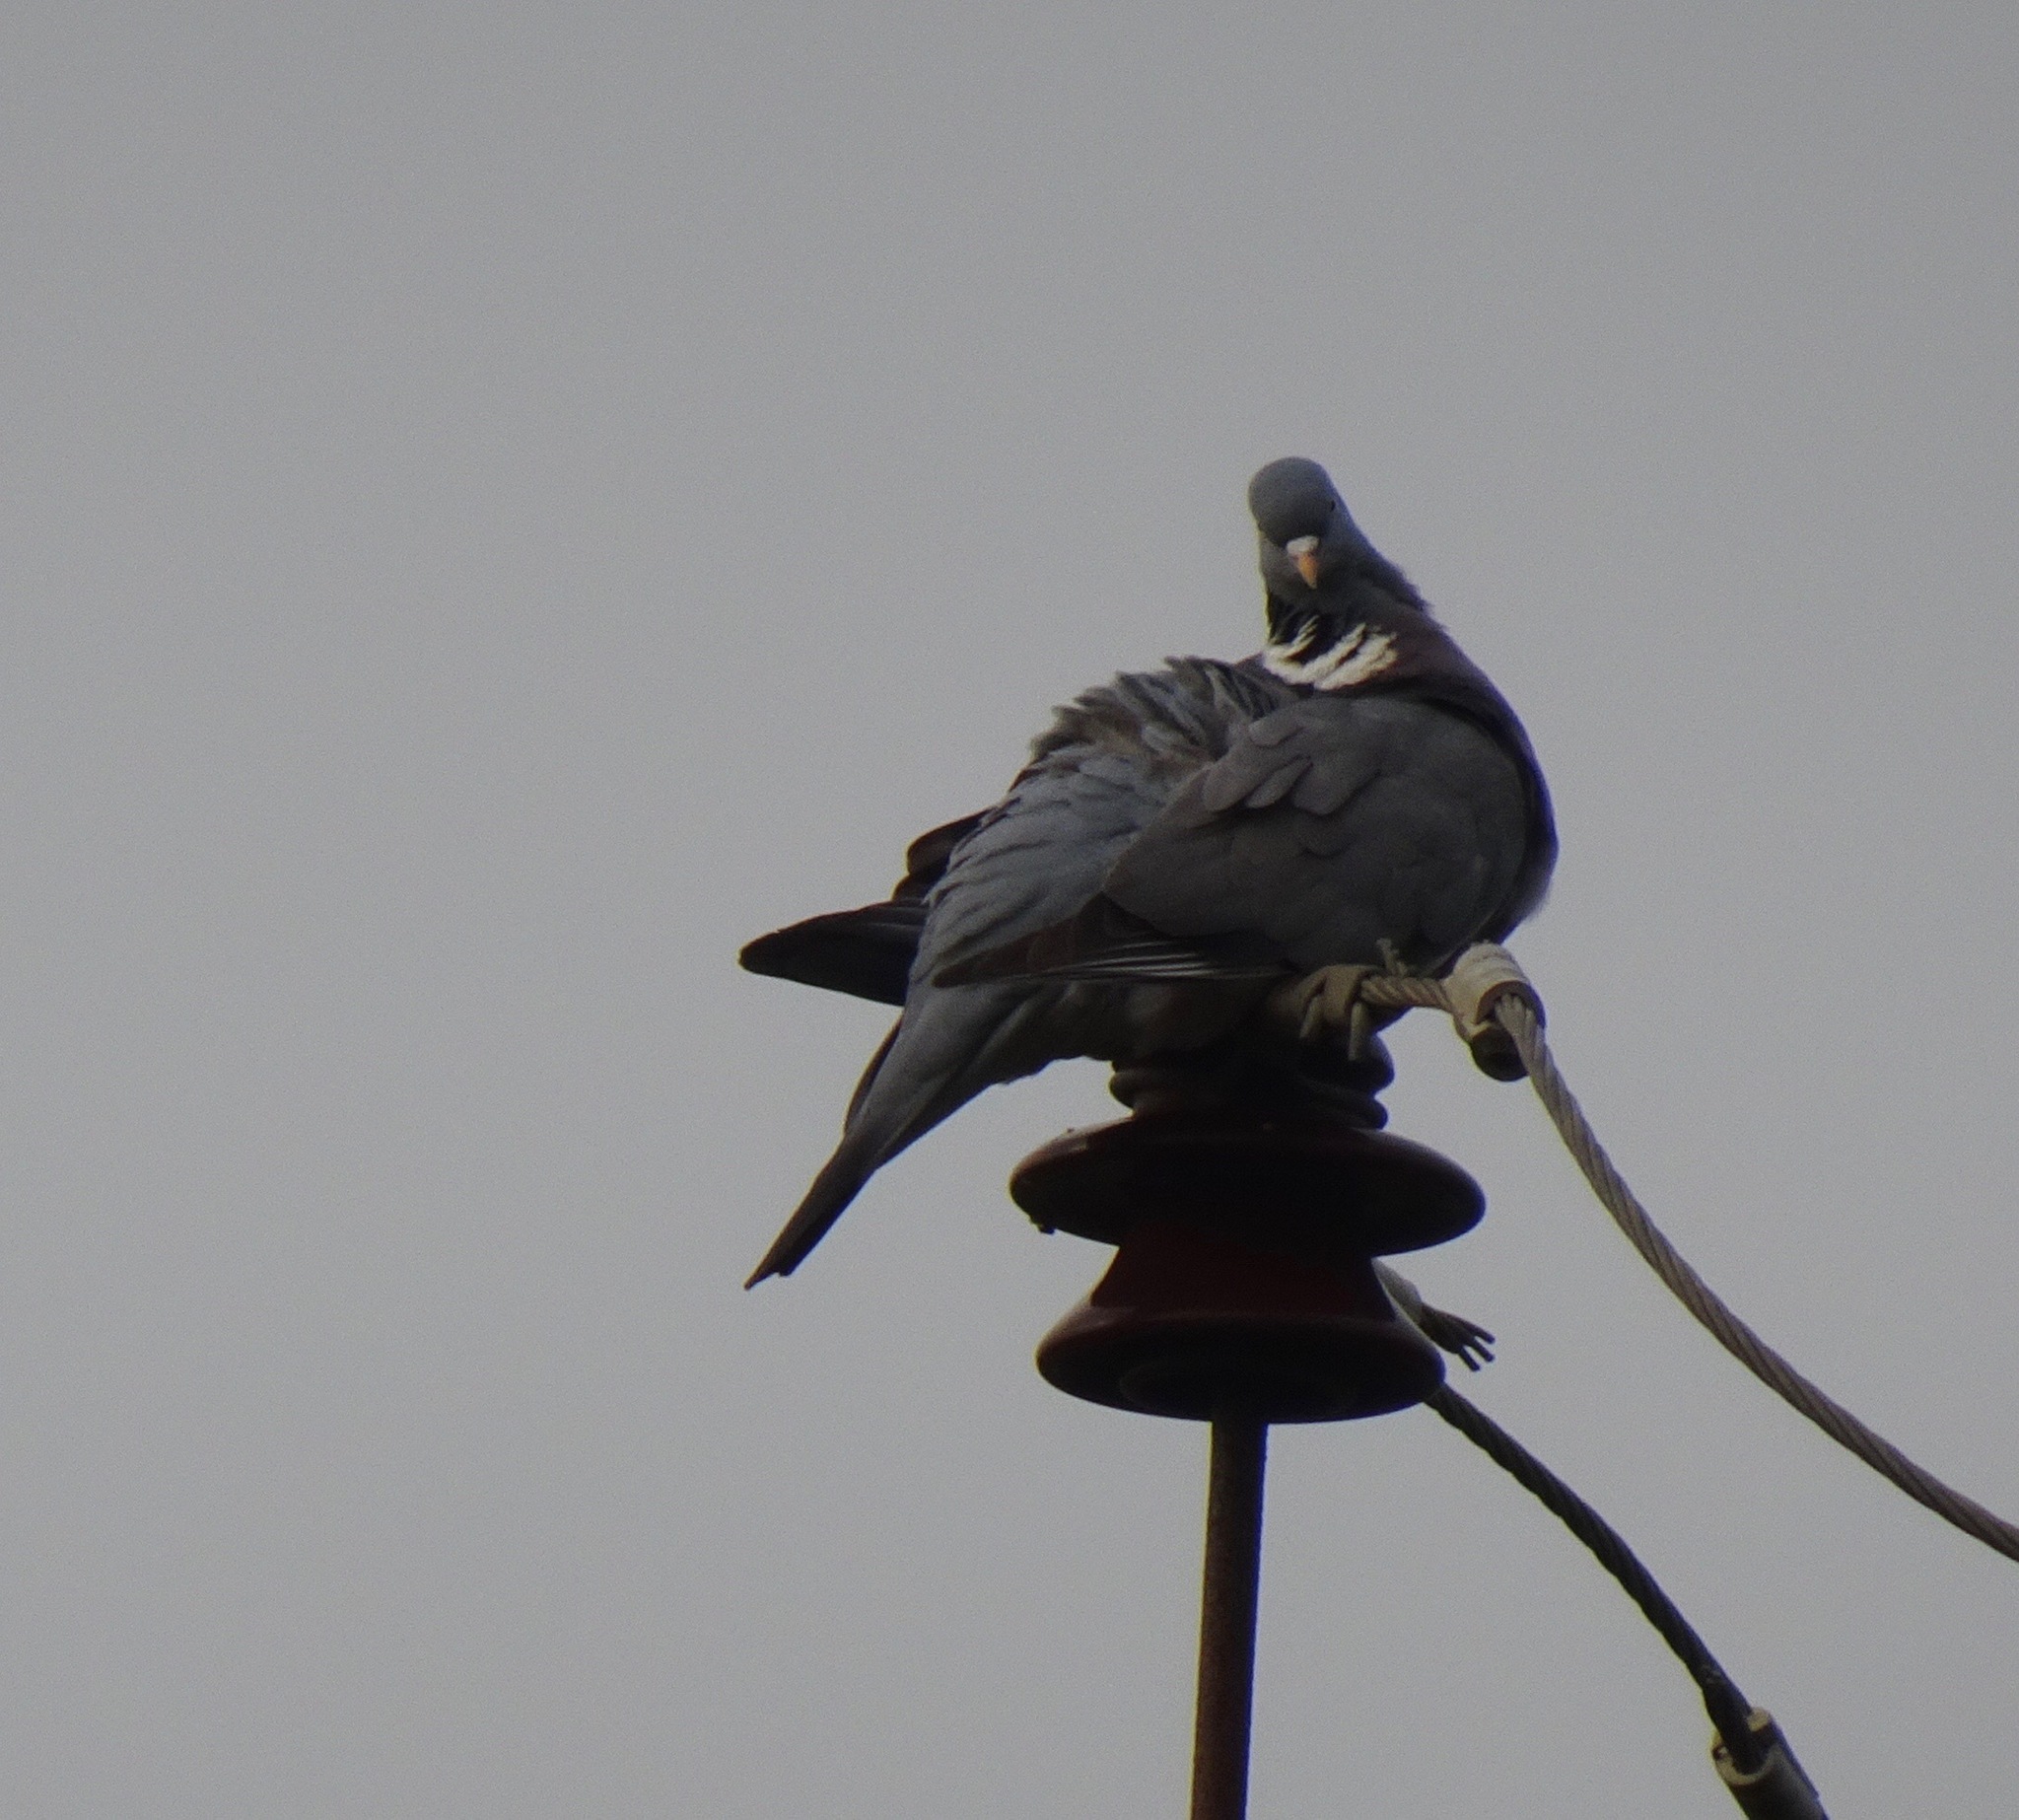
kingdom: Animalia
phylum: Chordata
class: Aves
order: Columbiformes
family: Columbidae
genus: Columba
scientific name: Columba palumbus
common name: Common wood pigeon
